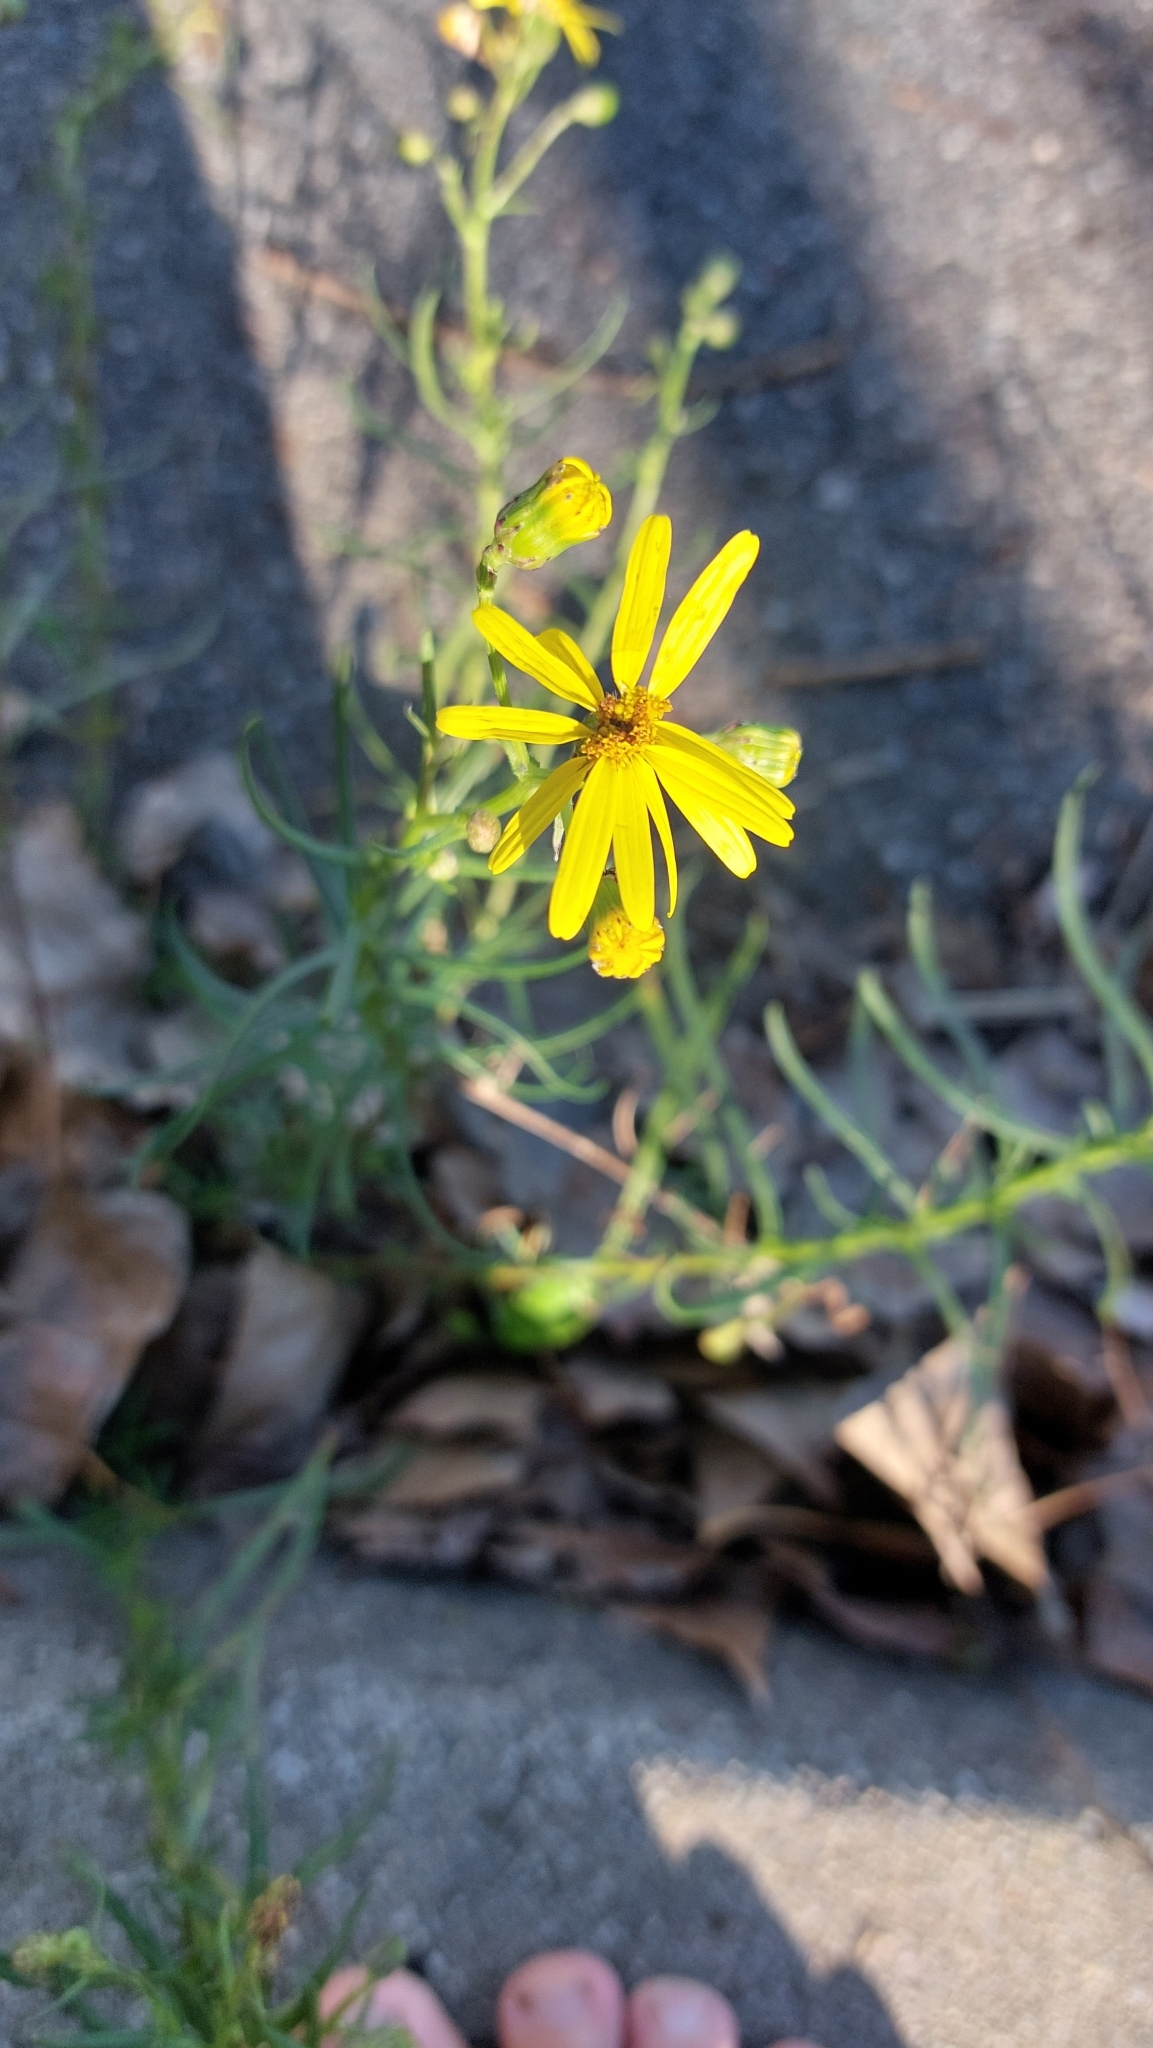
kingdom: Plantae
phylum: Tracheophyta
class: Magnoliopsida
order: Asterales
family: Asteraceae
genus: Senecio
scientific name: Senecio inaequidens
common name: Narrow-leaved ragwort
